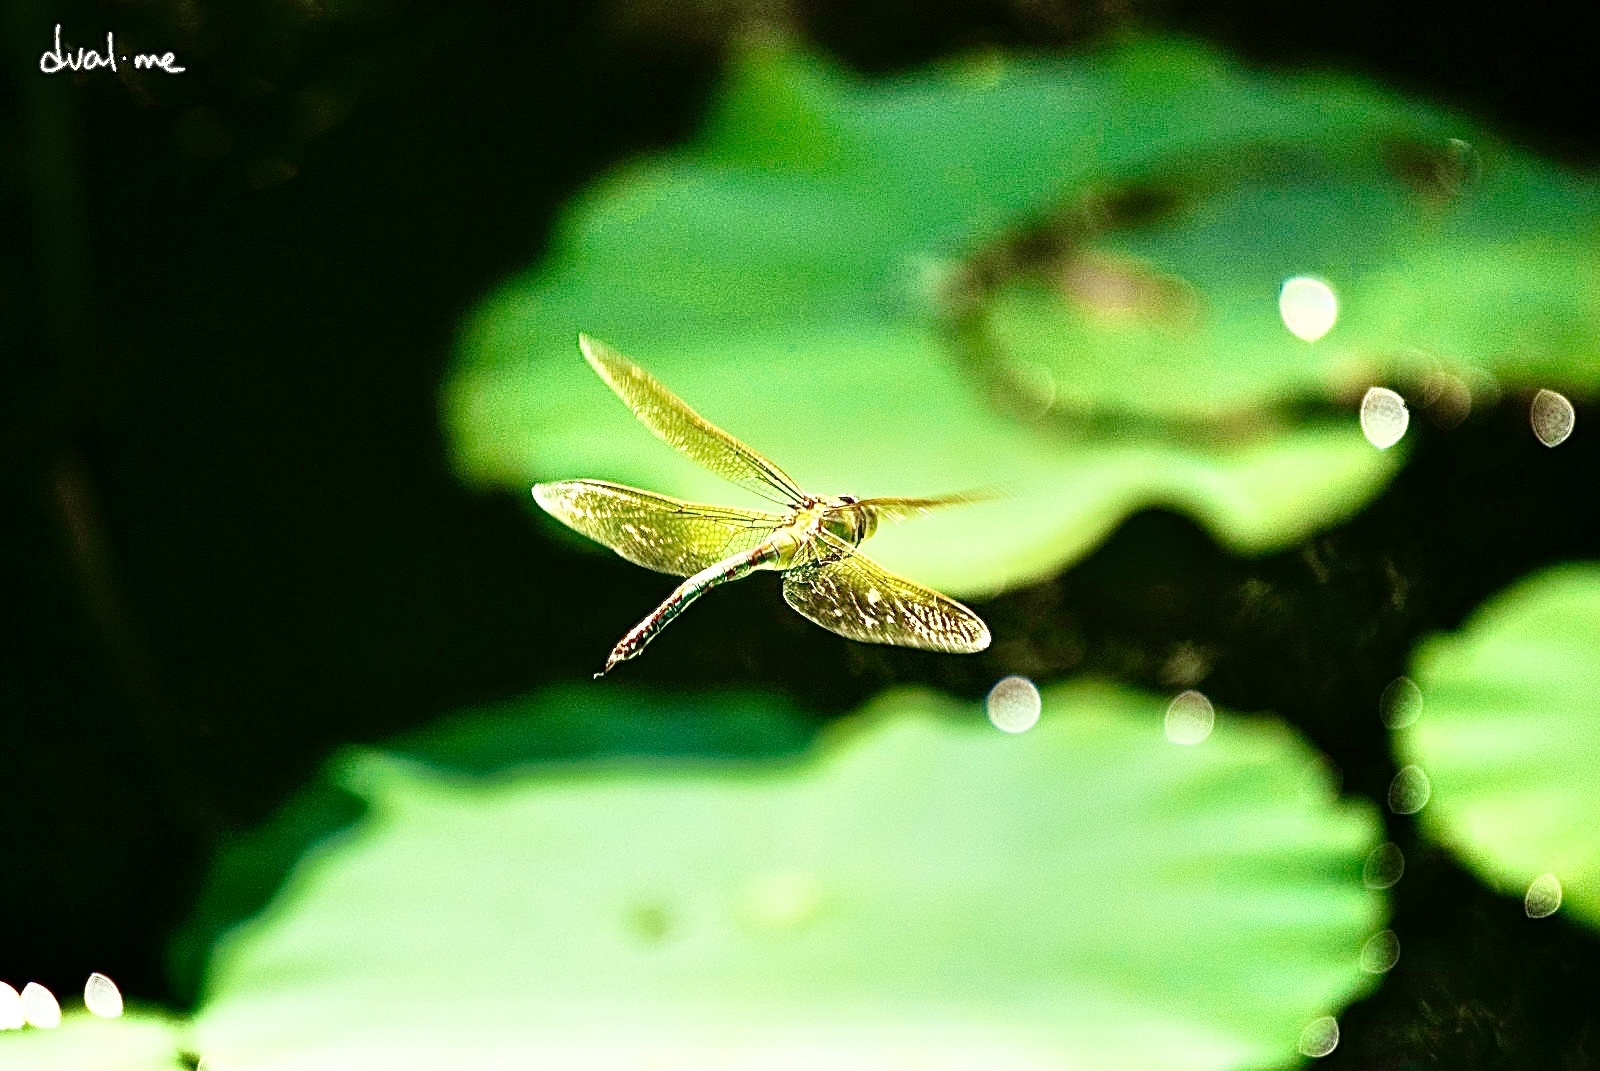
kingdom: Animalia
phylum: Arthropoda
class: Insecta
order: Odonata
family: Aeshnidae
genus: Anax
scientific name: Anax imperator
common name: Emperor dragonfly
